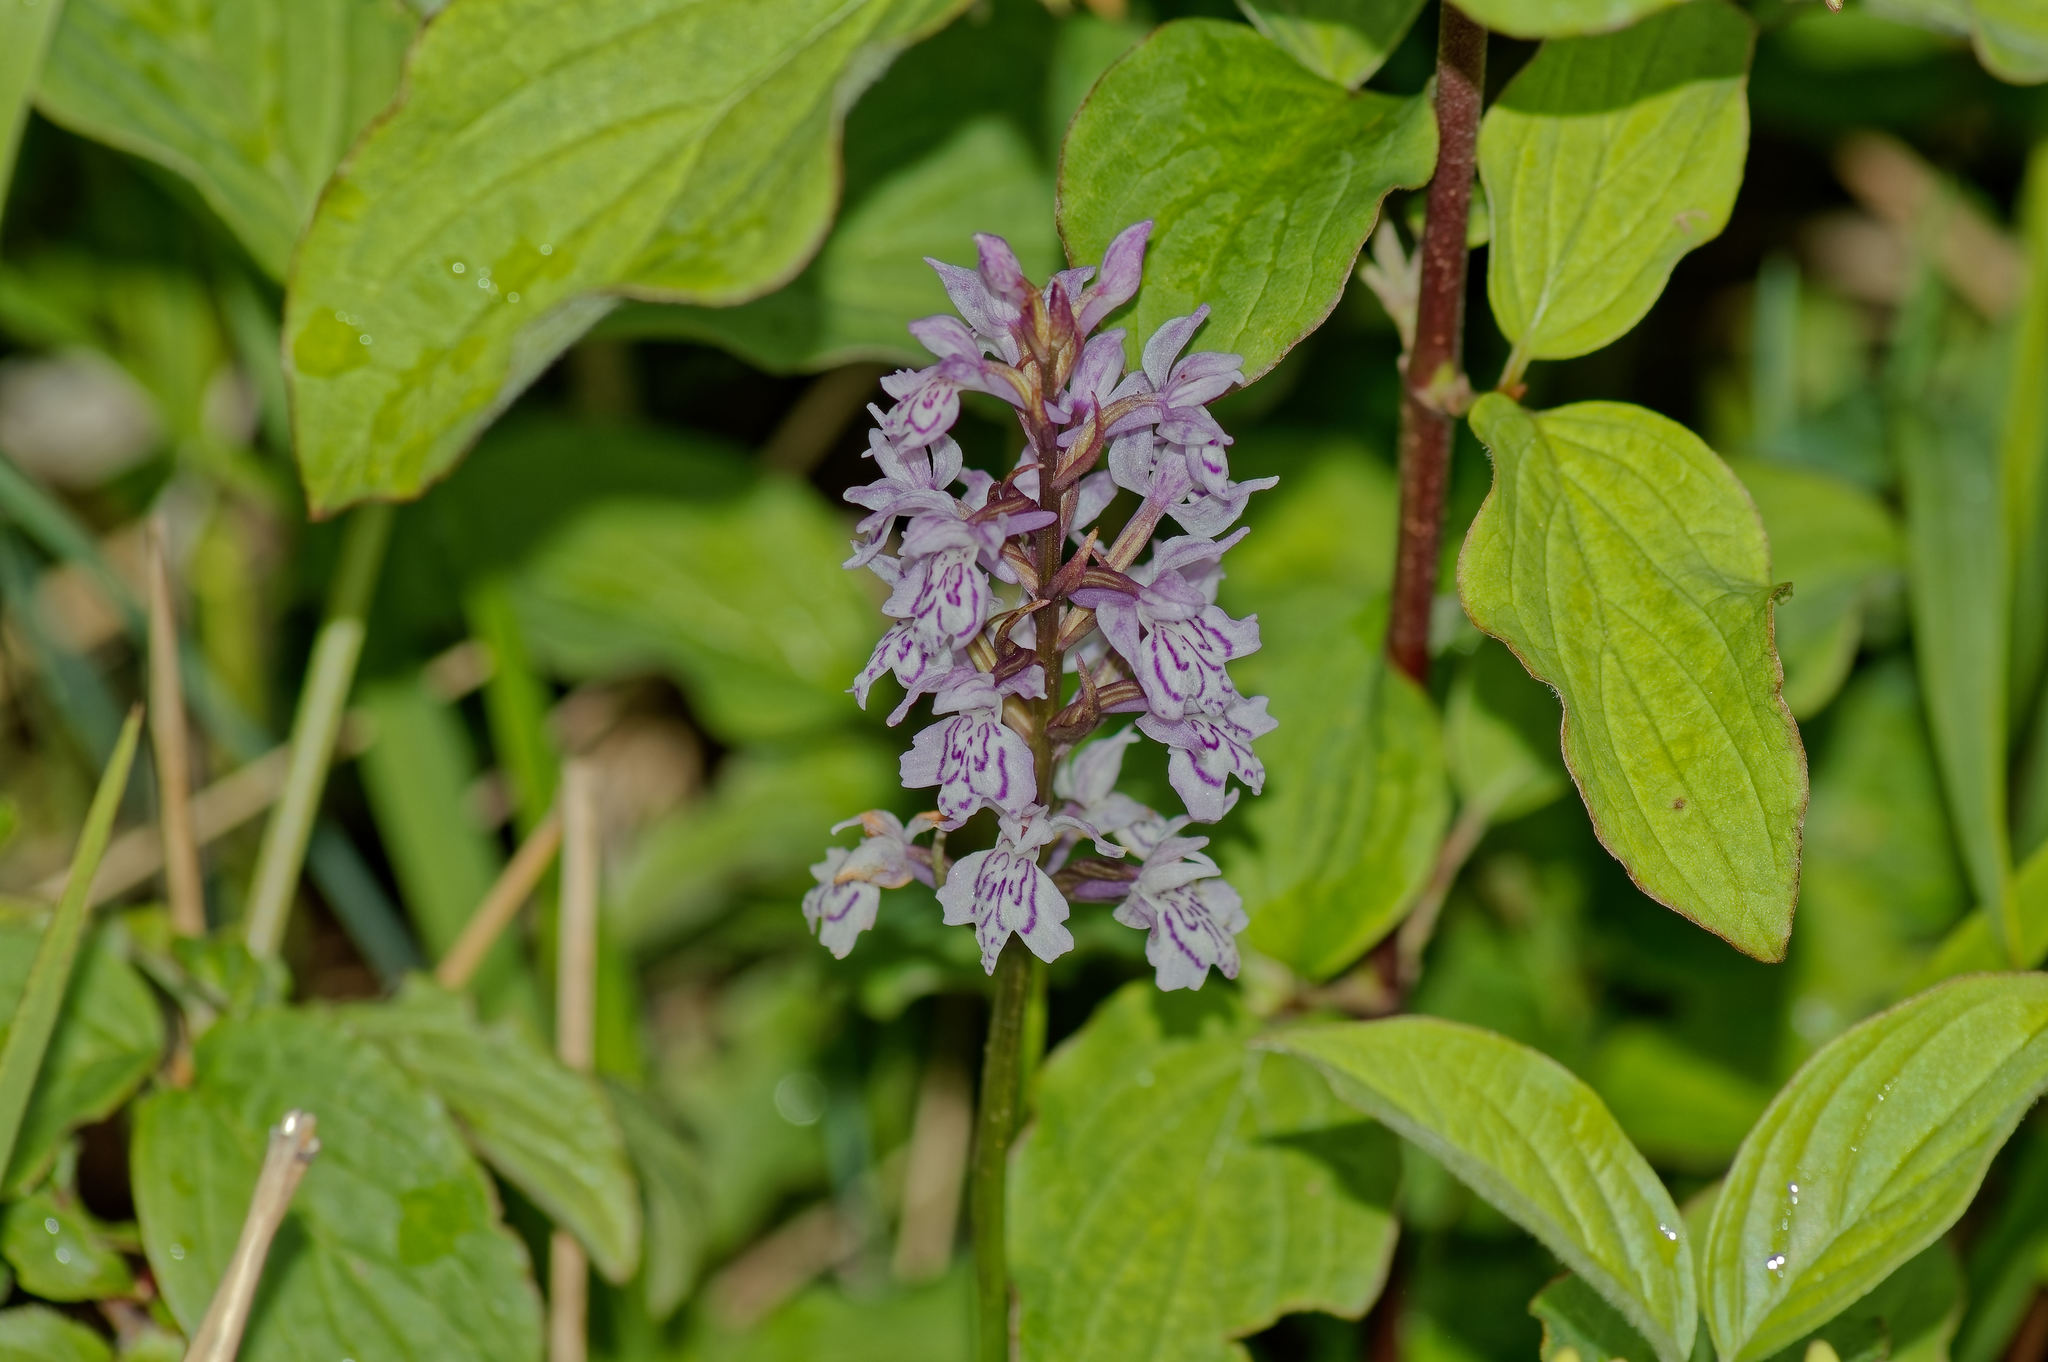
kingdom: Plantae
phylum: Tracheophyta
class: Liliopsida
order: Asparagales
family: Orchidaceae
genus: Dactylorhiza
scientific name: Dactylorhiza maculata
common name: Heath spotted-orchid
